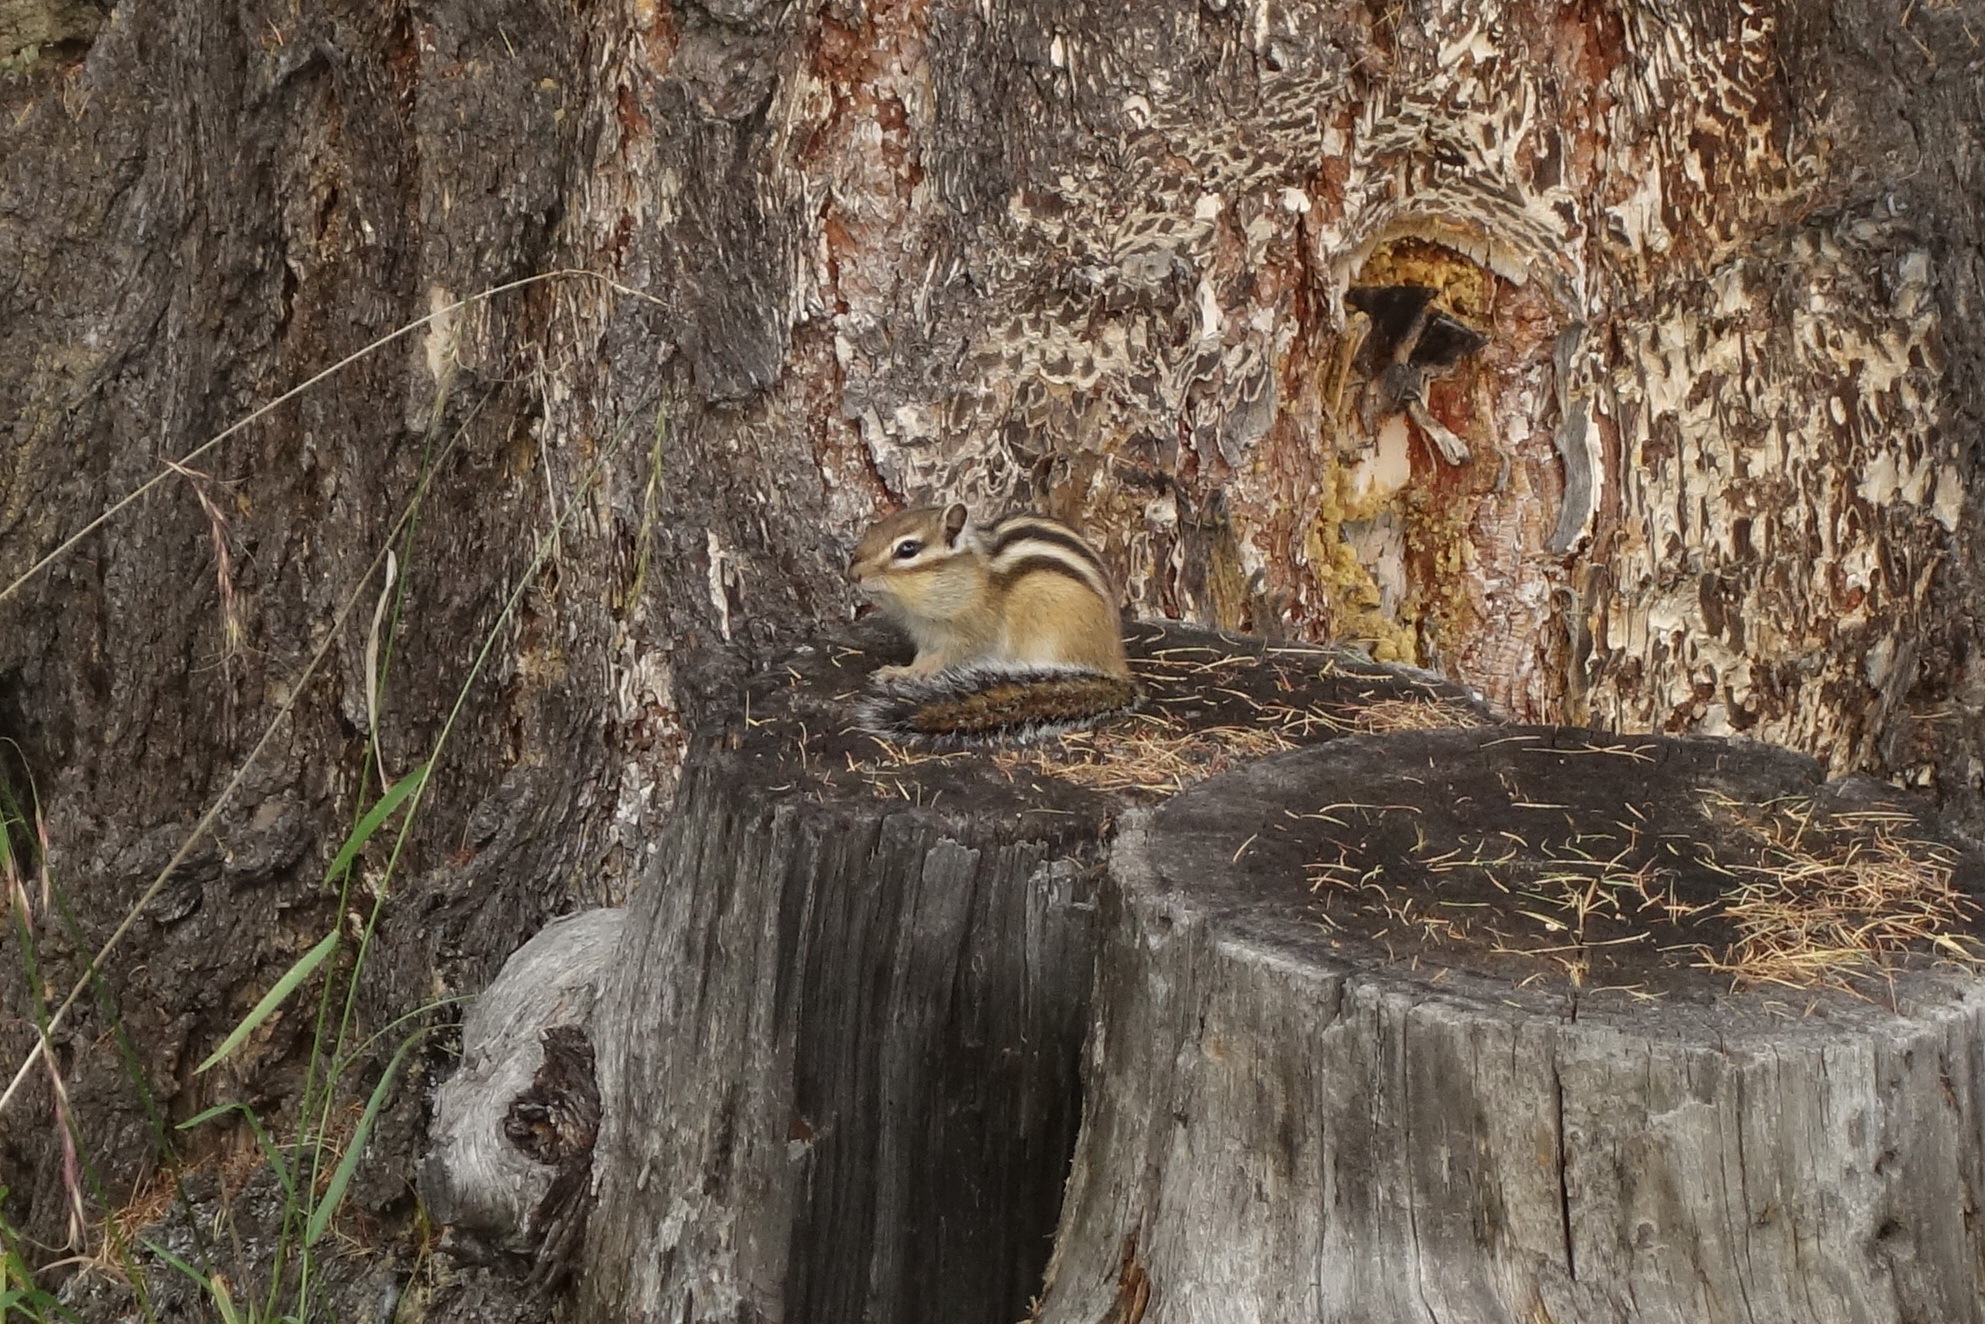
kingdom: Animalia
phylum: Chordata
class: Mammalia
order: Rodentia
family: Sciuridae
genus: Tamias
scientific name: Tamias sibiricus
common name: Siberian chipmunk
